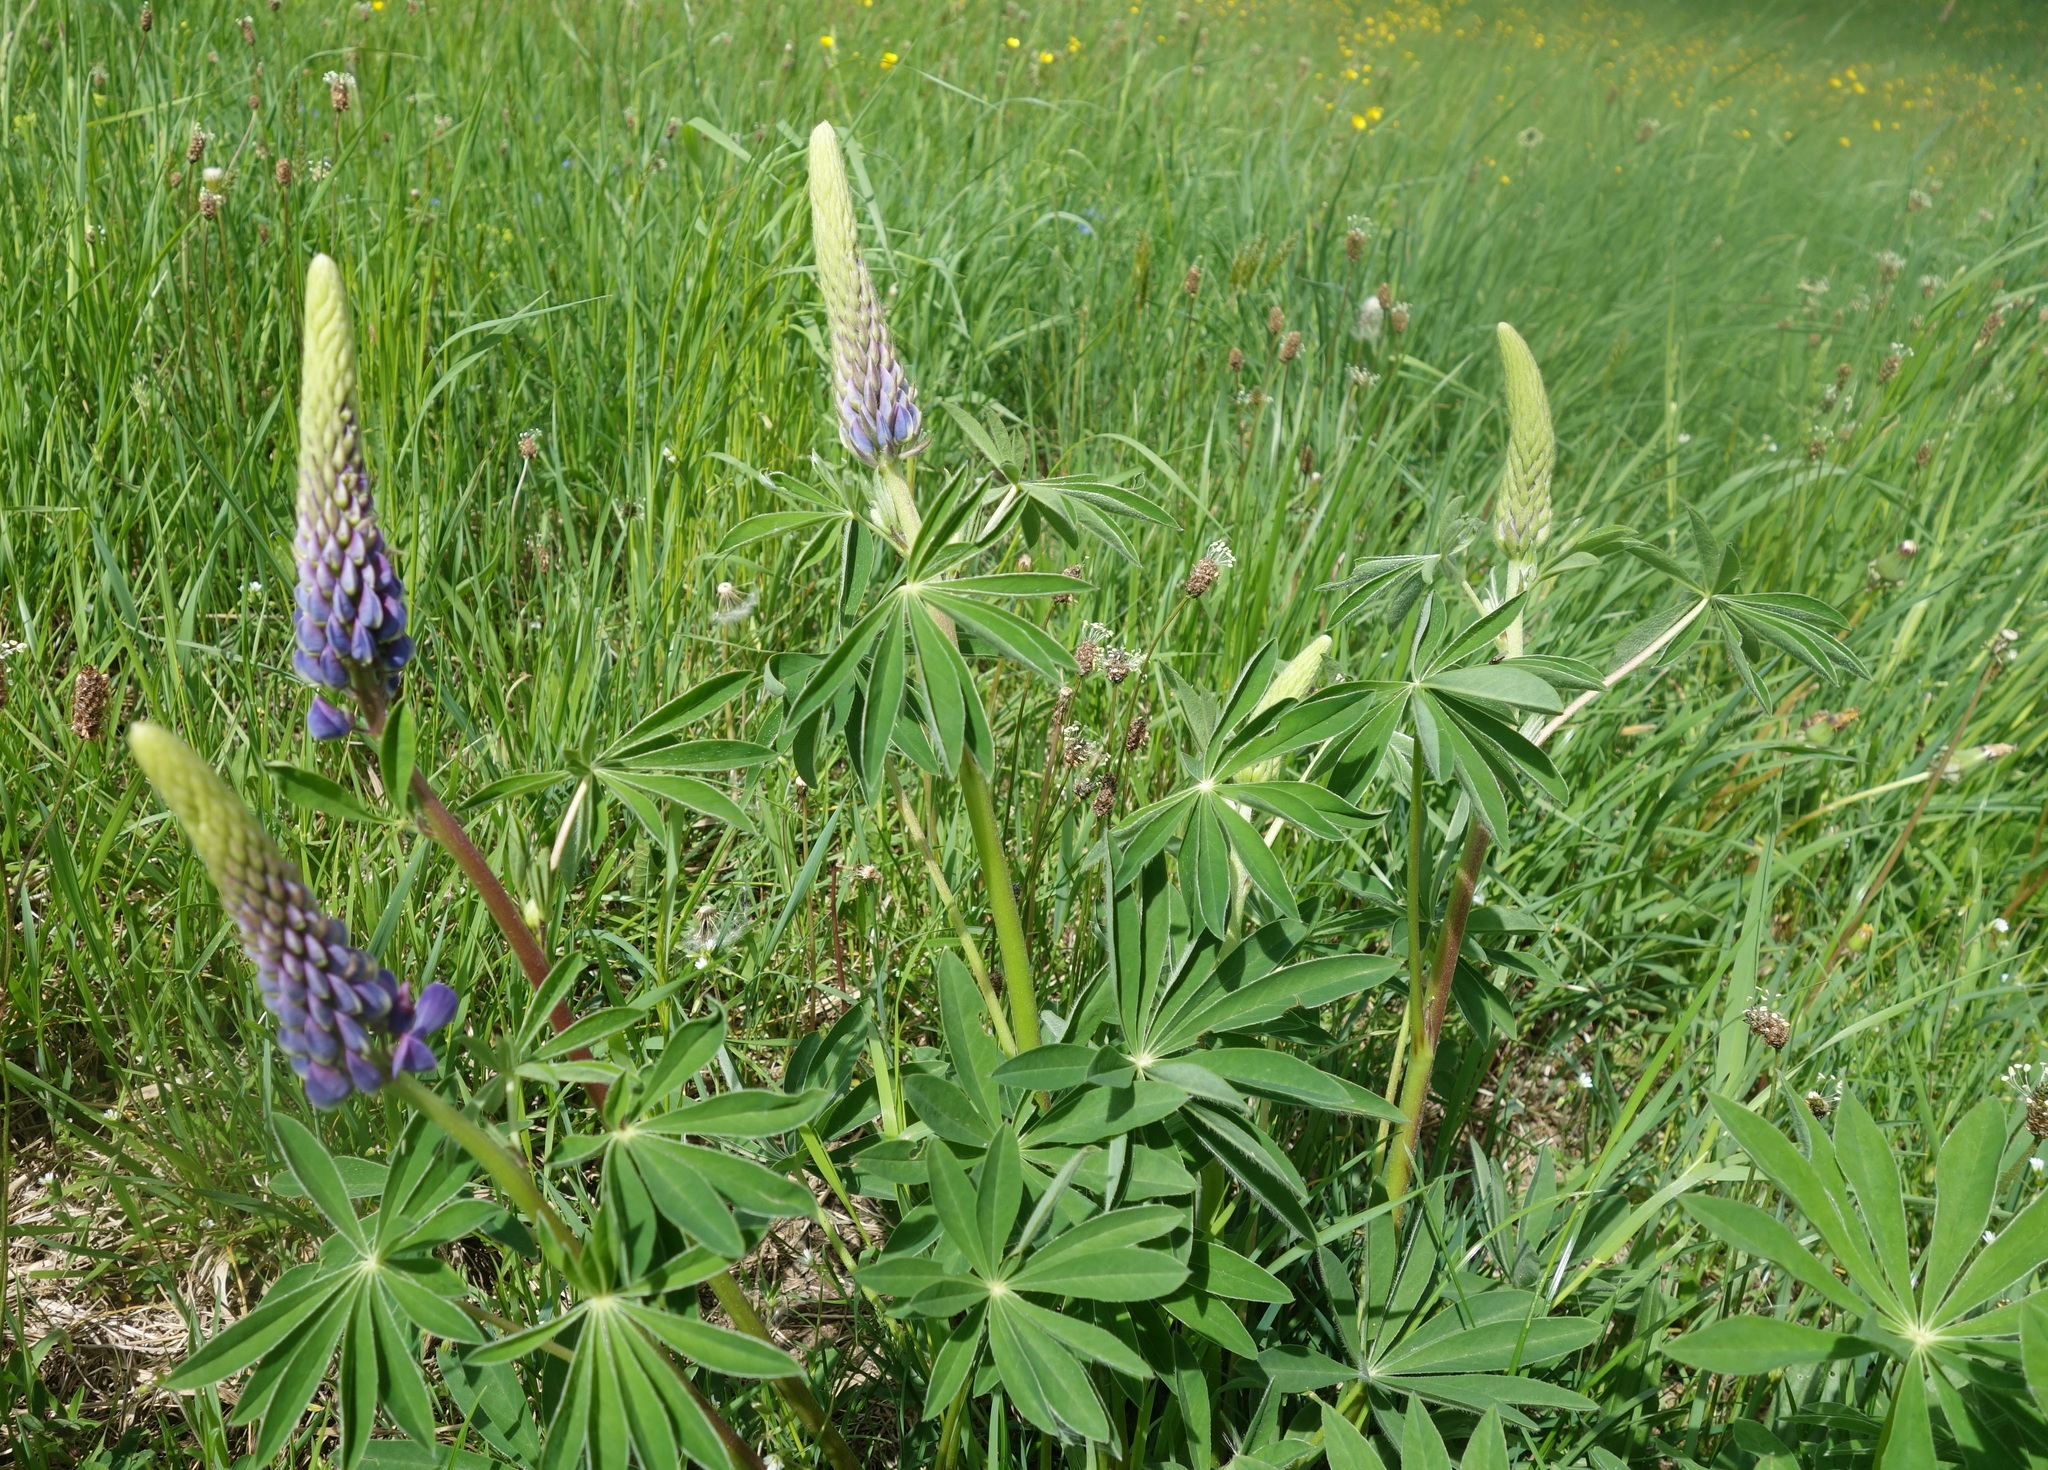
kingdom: Plantae
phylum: Tracheophyta
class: Magnoliopsida
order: Fabales
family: Fabaceae
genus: Lupinus
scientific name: Lupinus polyphyllus
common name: Garden lupin
